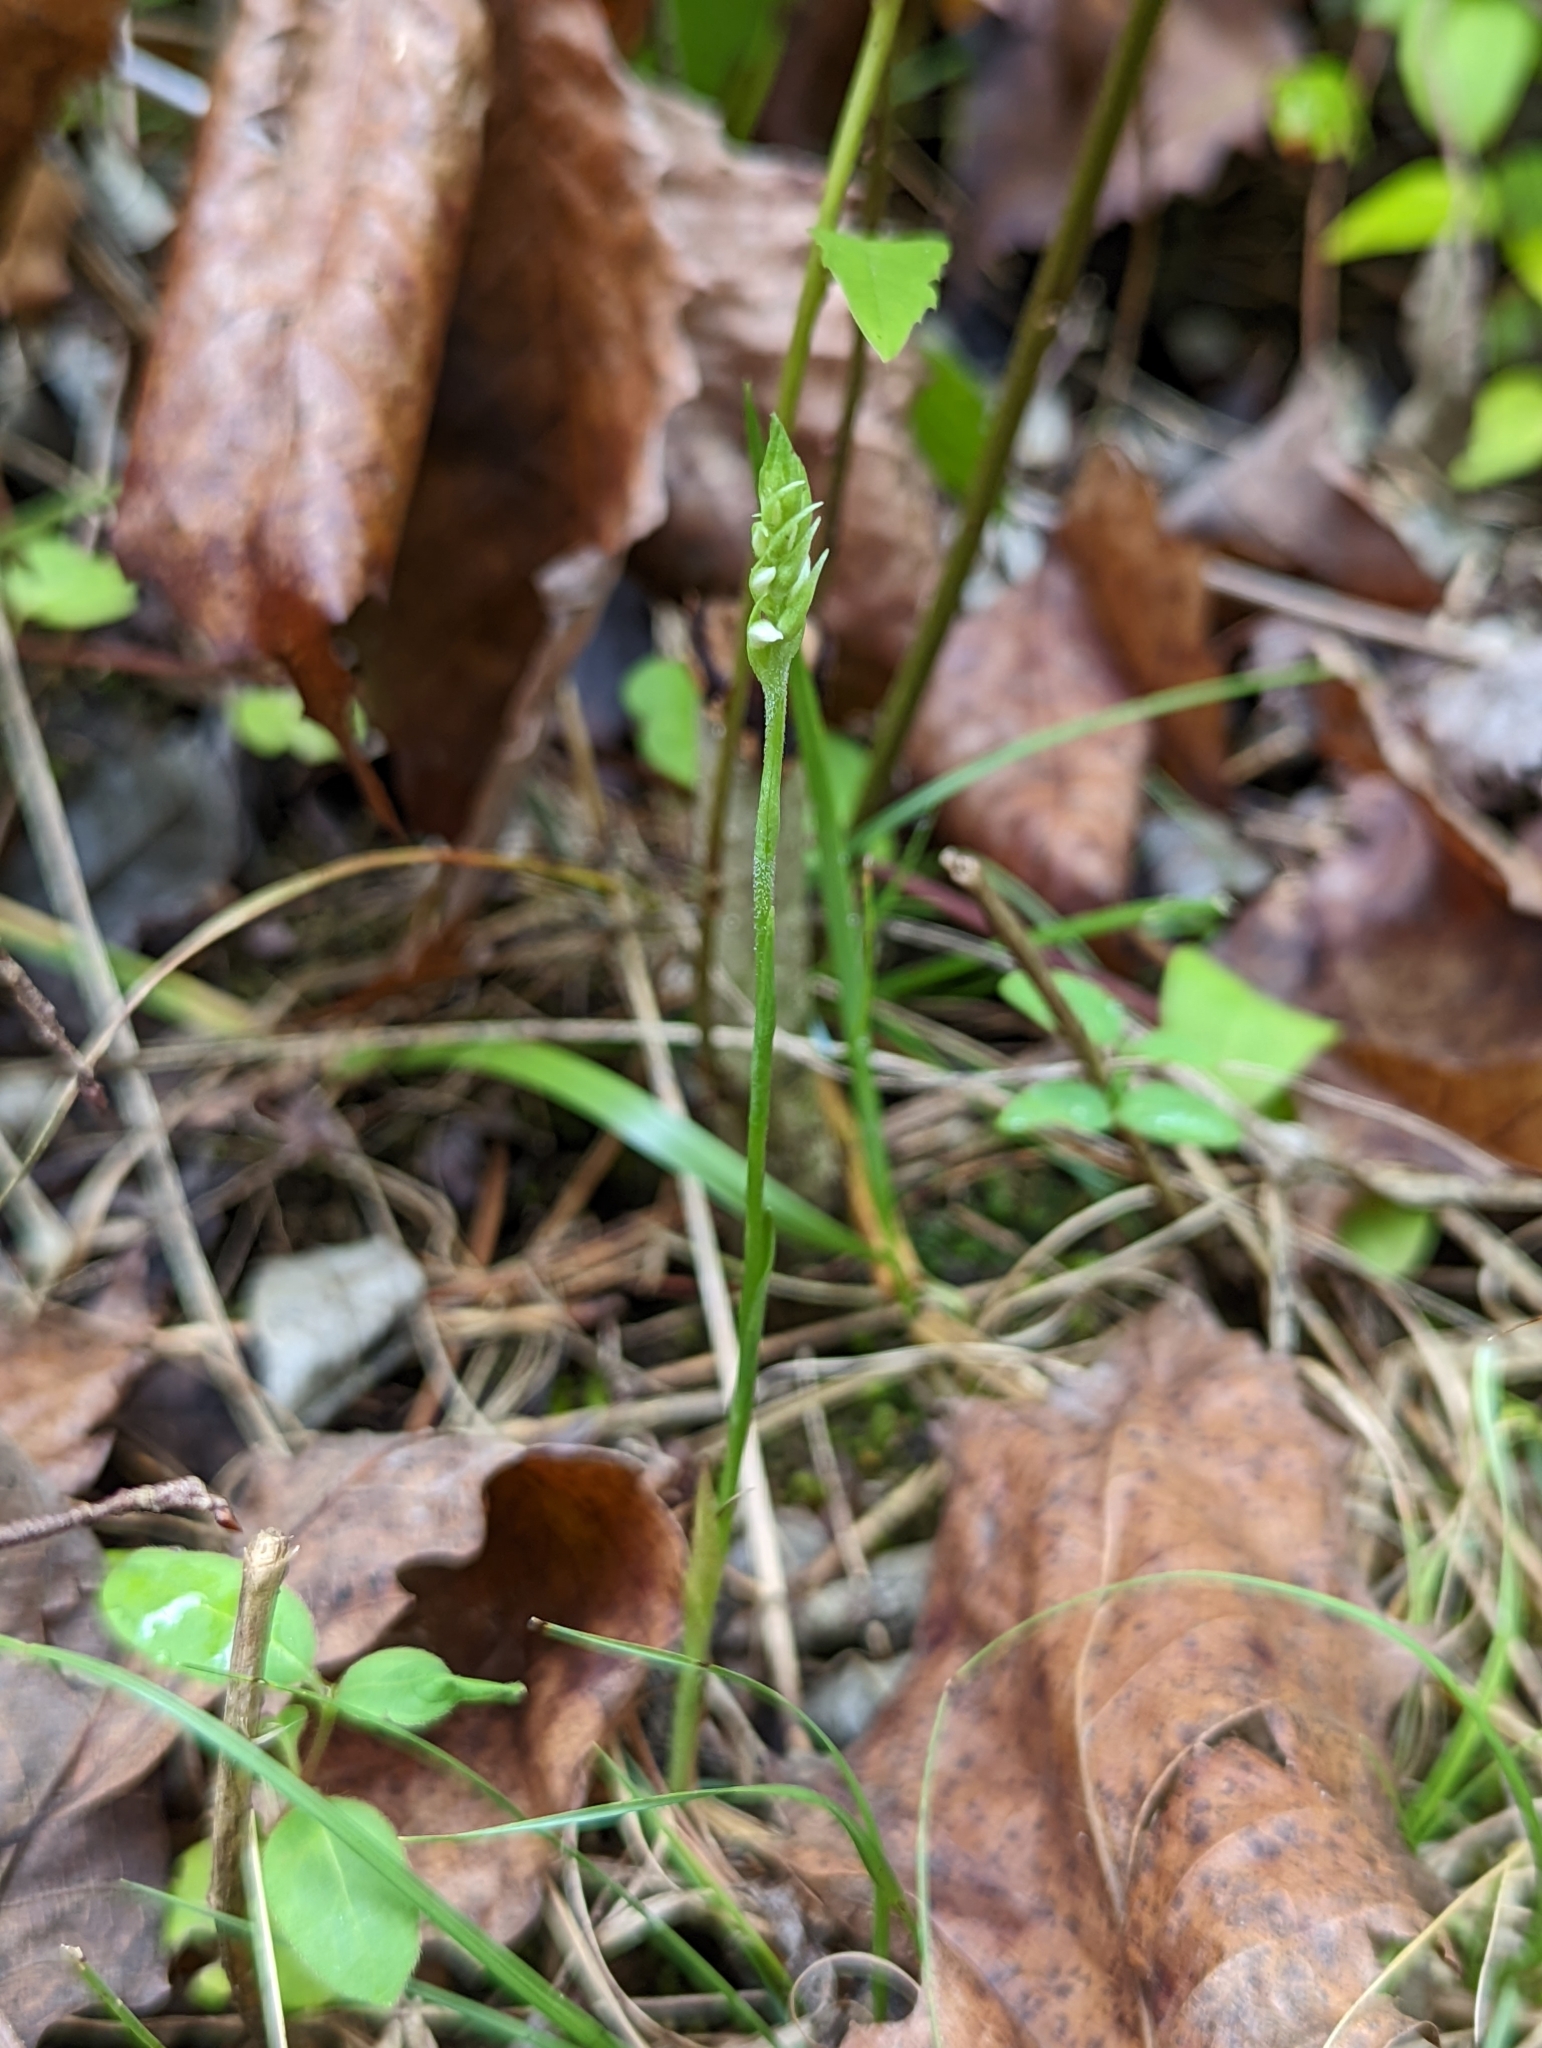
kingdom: Plantae
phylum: Tracheophyta
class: Liliopsida
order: Asparagales
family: Orchidaceae
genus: Spiranthes
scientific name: Spiranthes ovalis
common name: October ladies'-tresses
